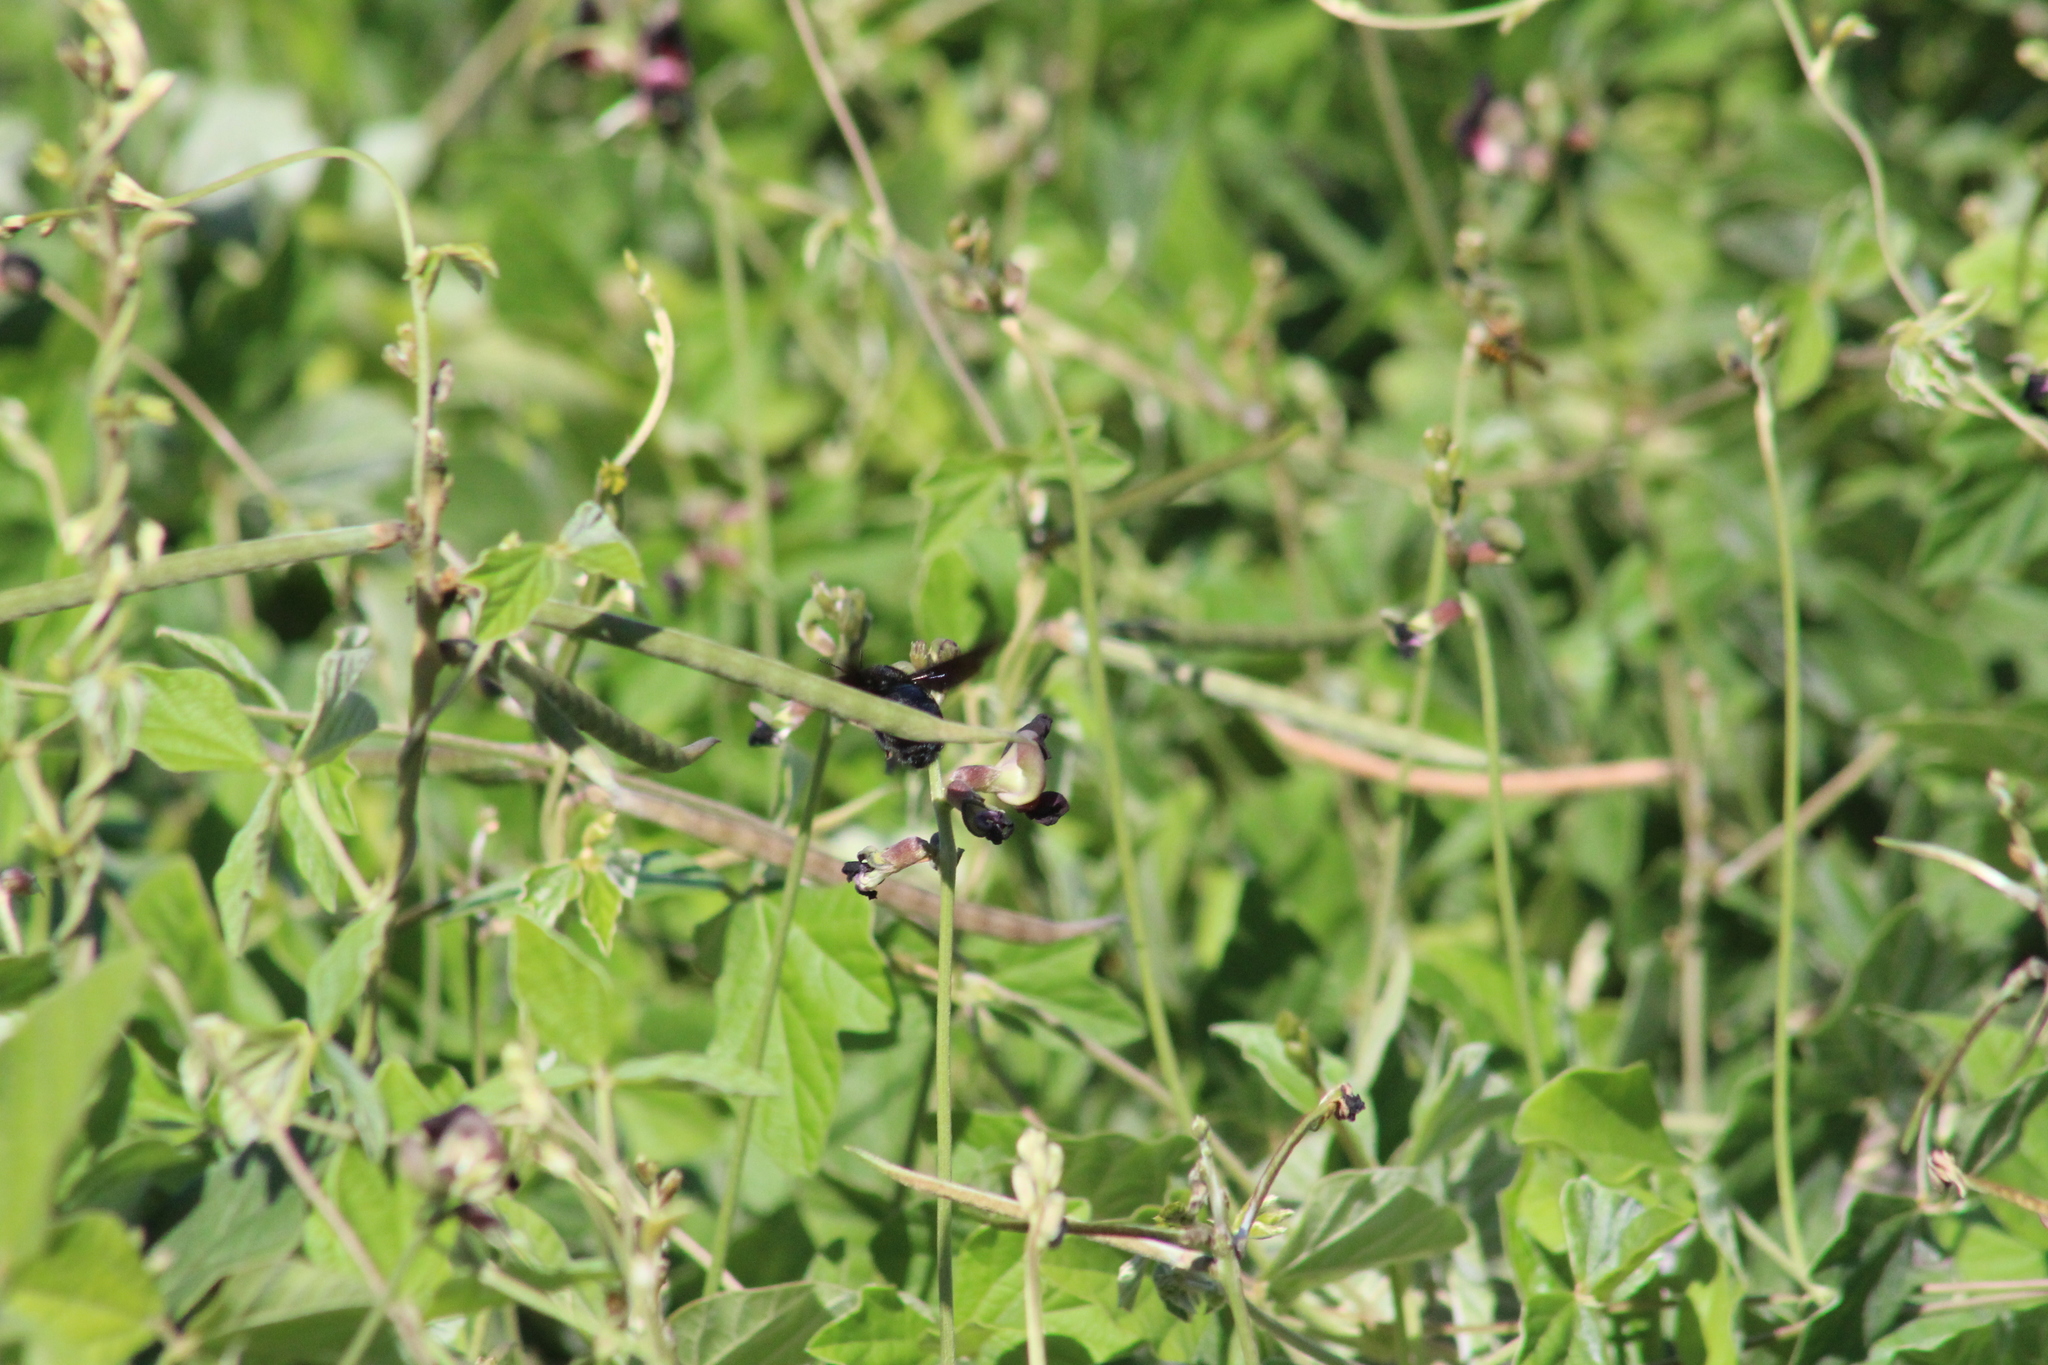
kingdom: Animalia
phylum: Arthropoda
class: Insecta
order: Hymenoptera
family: Apidae
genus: Xylocopa
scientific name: Xylocopa darwini
